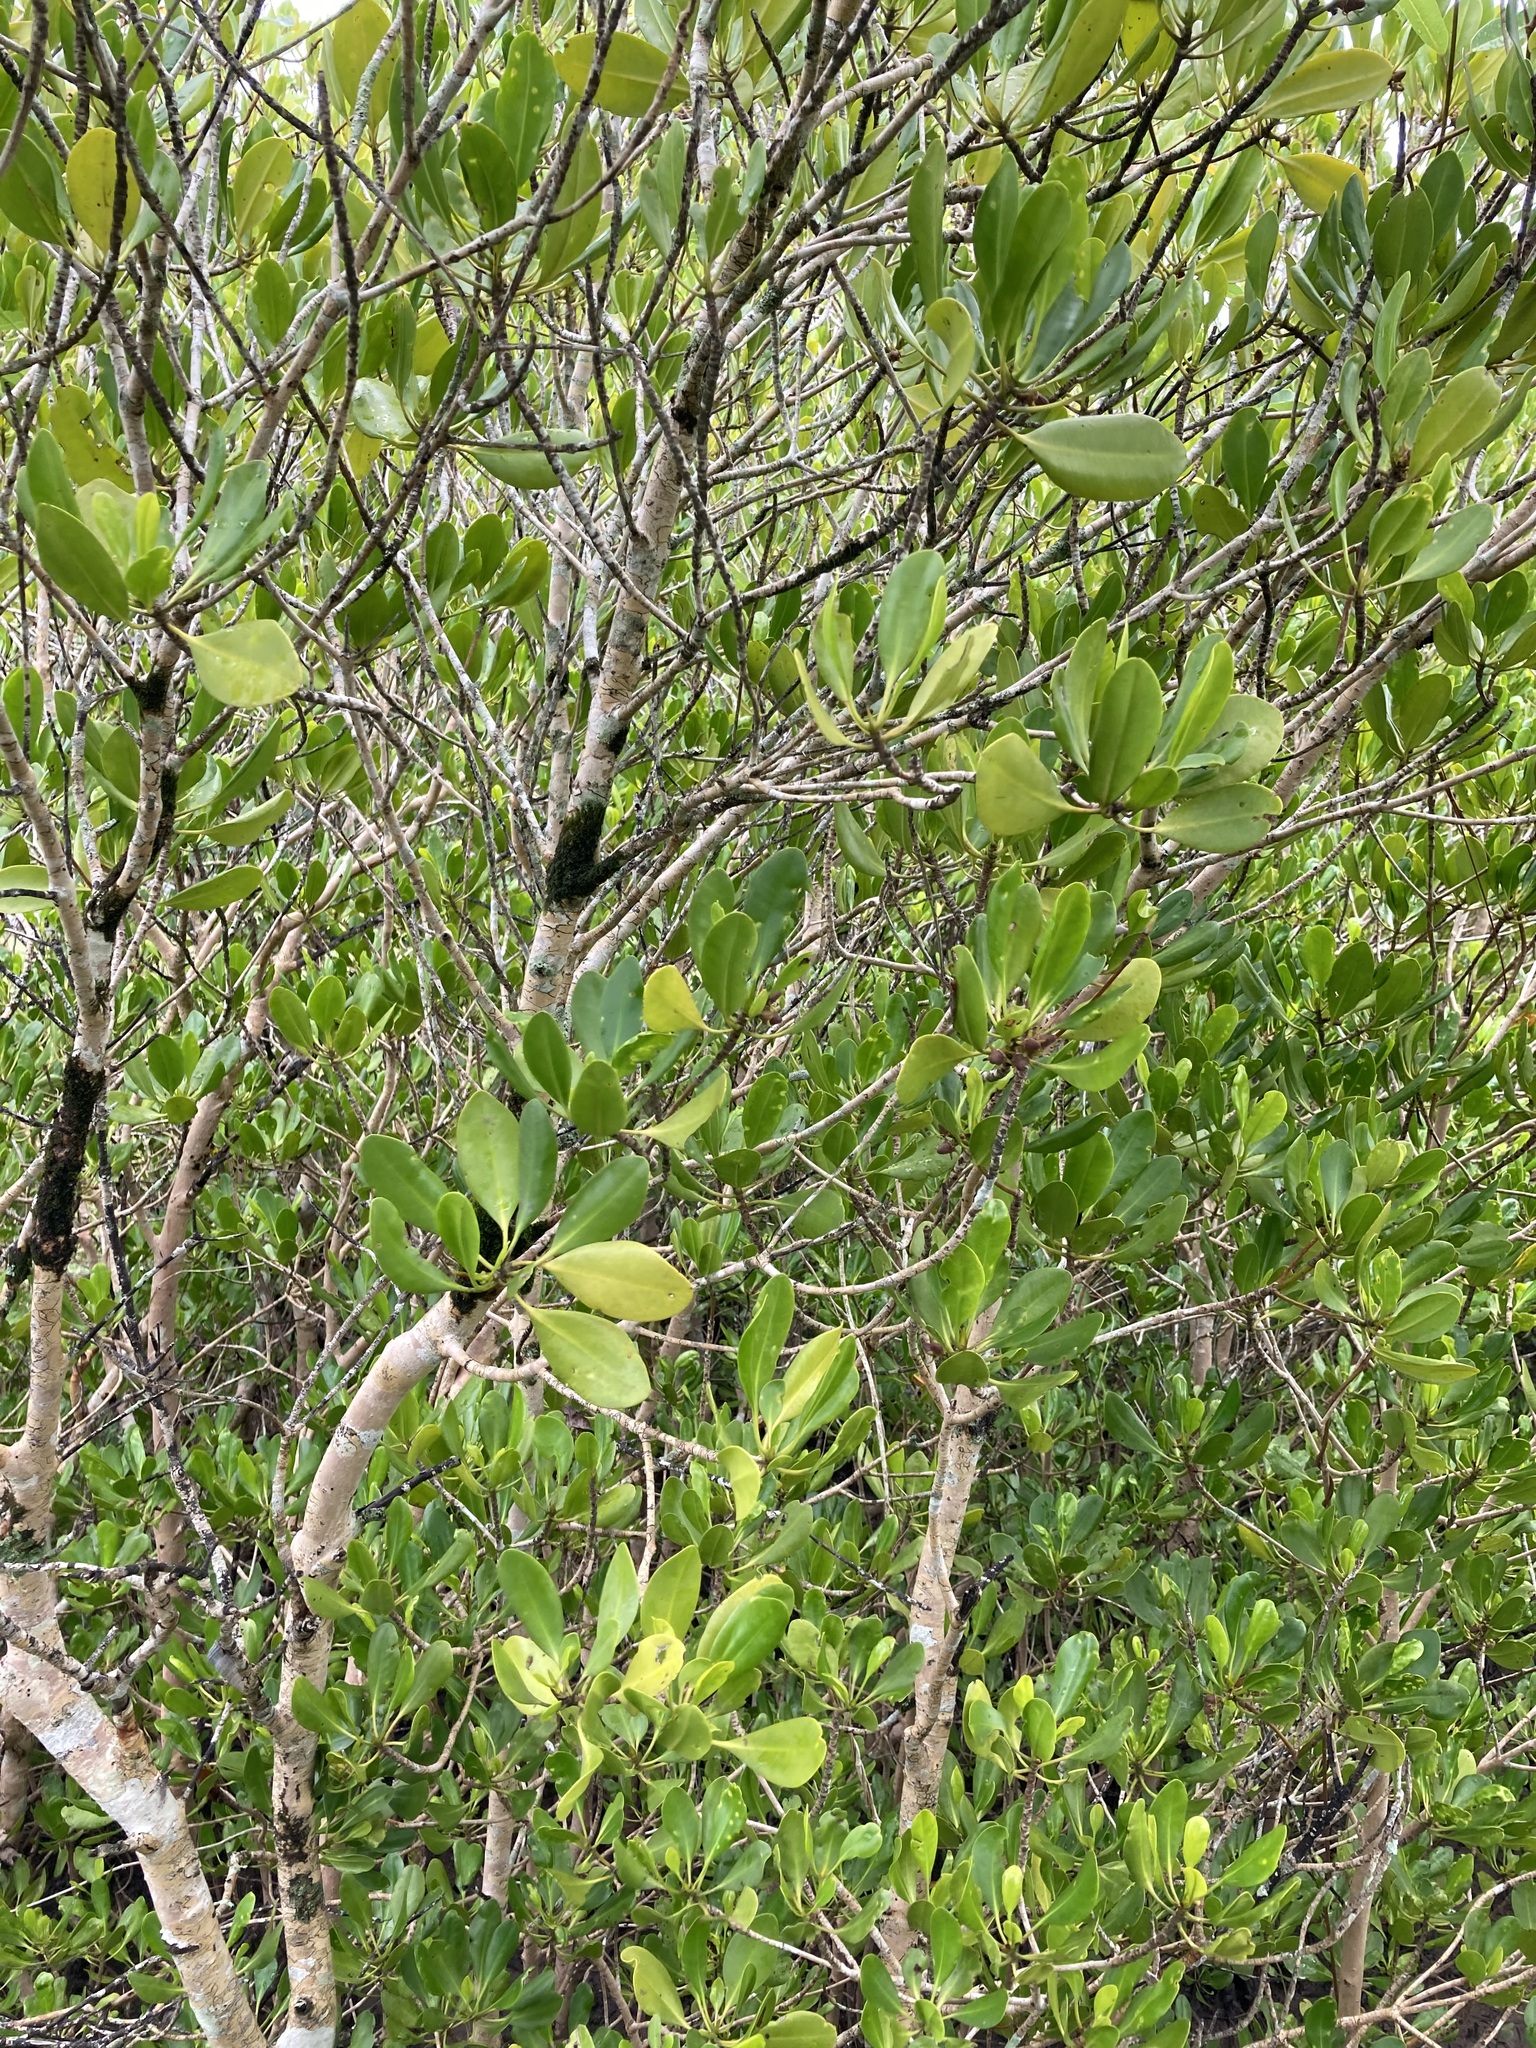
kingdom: Plantae
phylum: Tracheophyta
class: Magnoliopsida
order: Malpighiales
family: Rhizophoraceae
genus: Ceriops
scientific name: Ceriops australis
